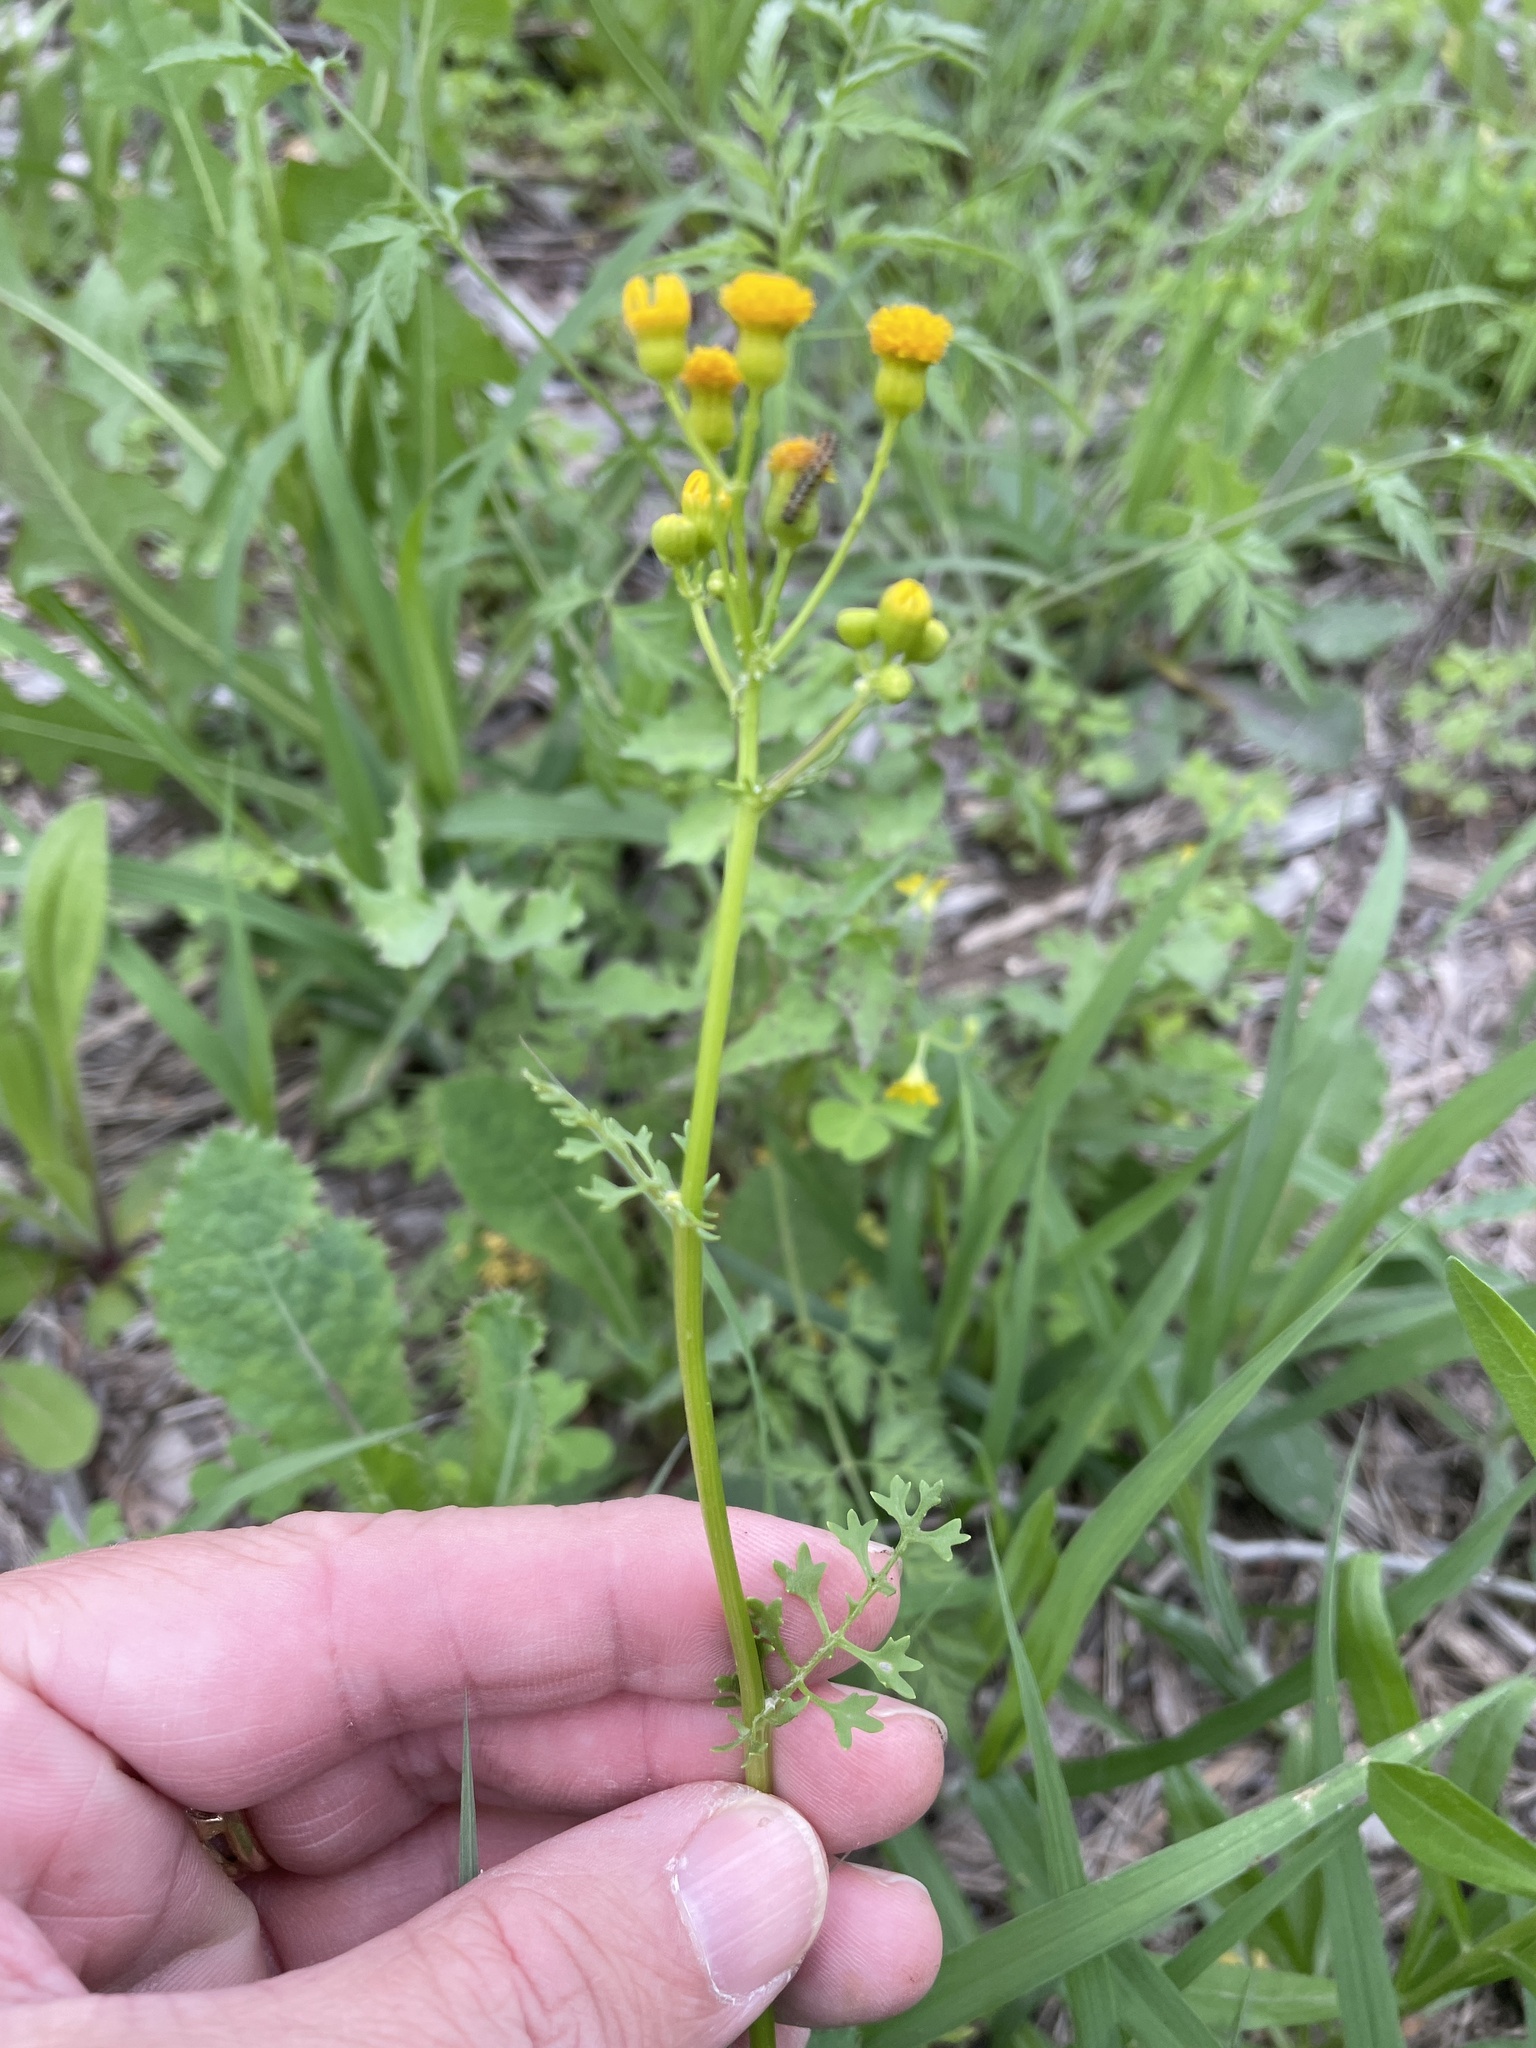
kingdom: Plantae
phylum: Tracheophyta
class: Magnoliopsida
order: Asterales
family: Asteraceae
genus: Packera
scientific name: Packera tampicana
